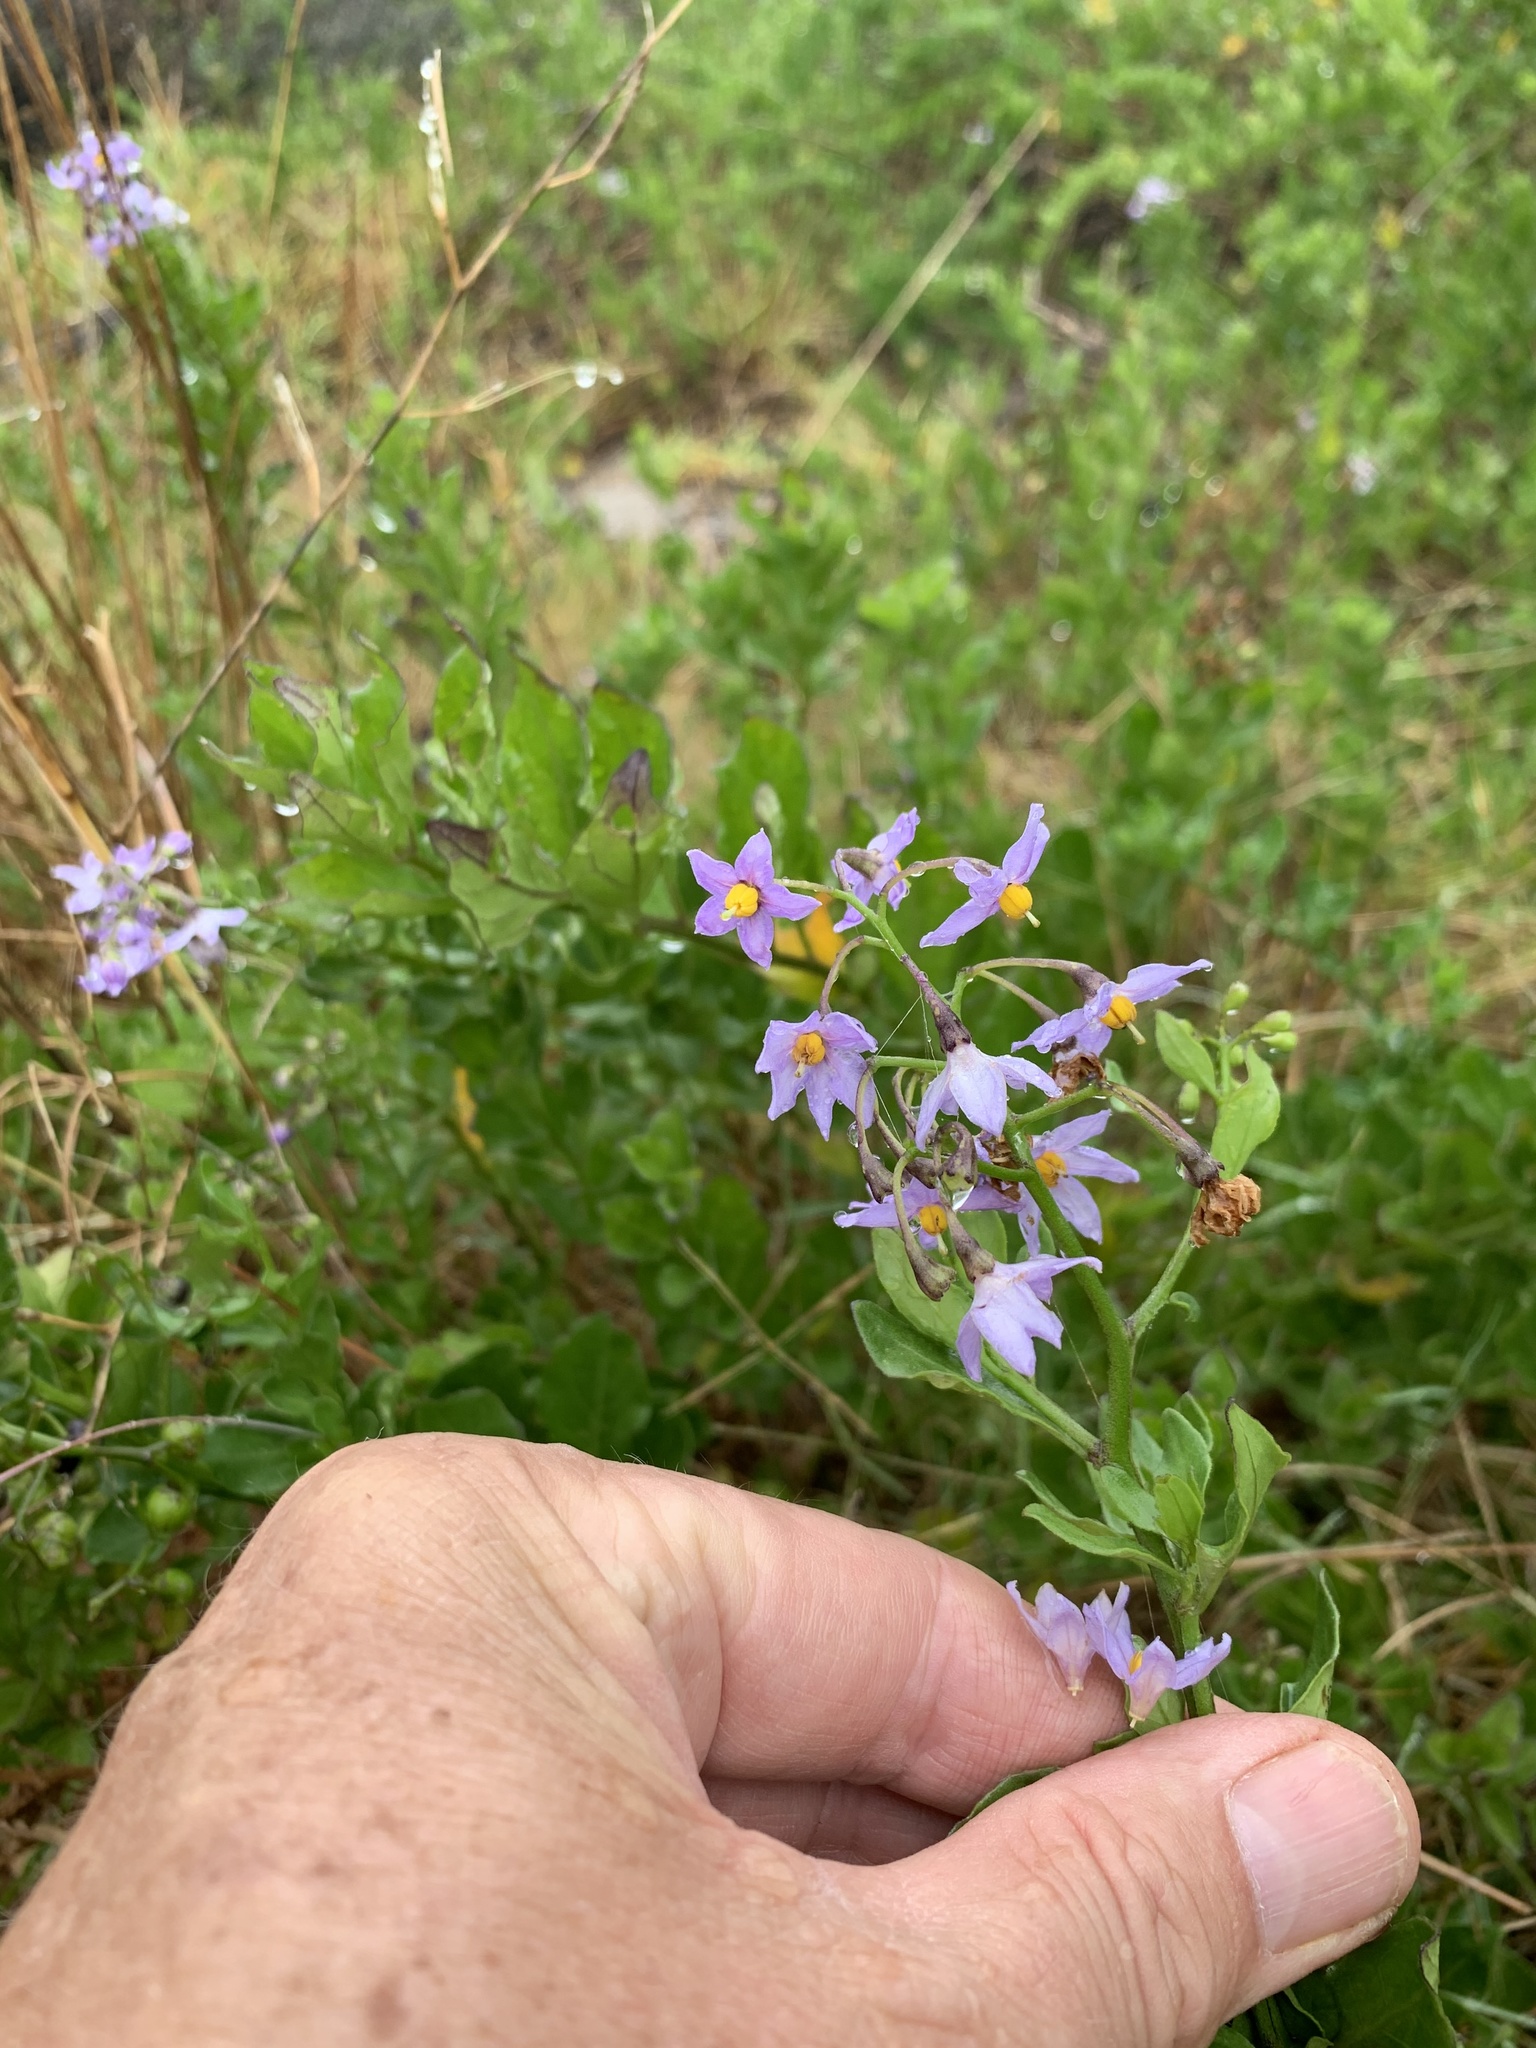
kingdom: Plantae
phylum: Tracheophyta
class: Magnoliopsida
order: Solanales
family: Solanaceae
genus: Solanum
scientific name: Solanum africanum
